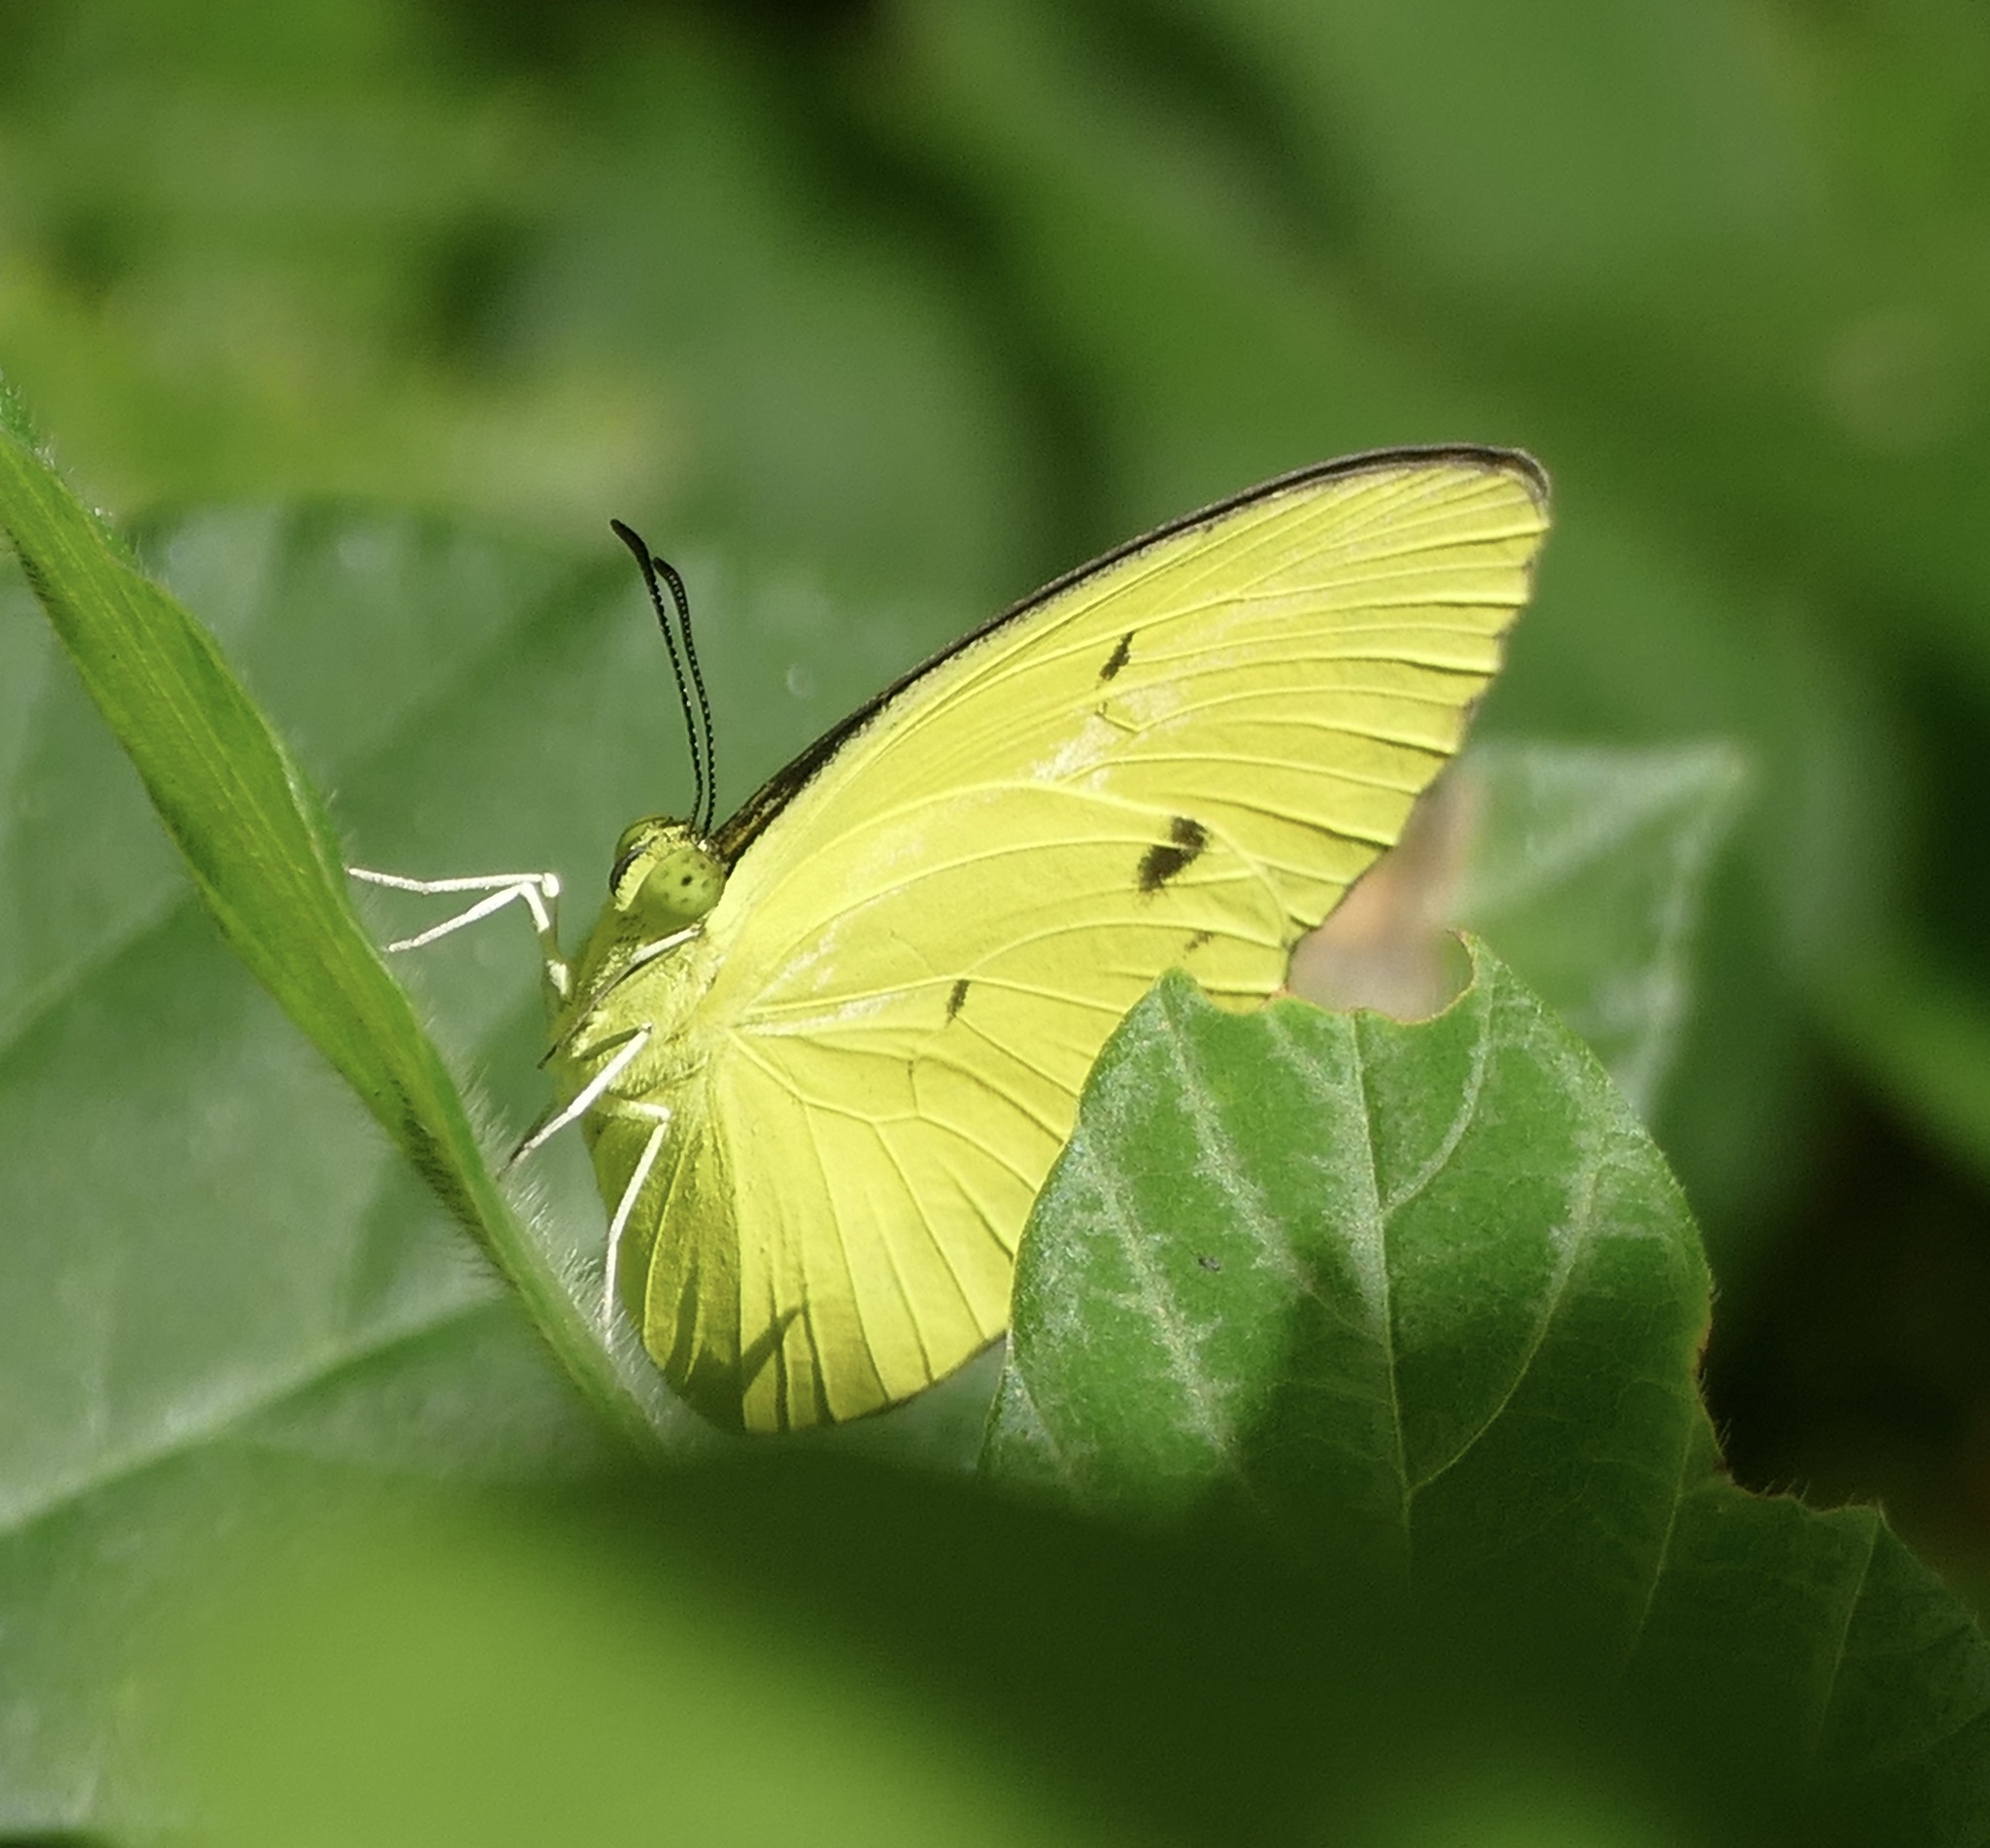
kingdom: Animalia
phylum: Arthropoda
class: Insecta
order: Lepidoptera
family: Pieridae
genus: Eurema
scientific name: Eurema tominia
